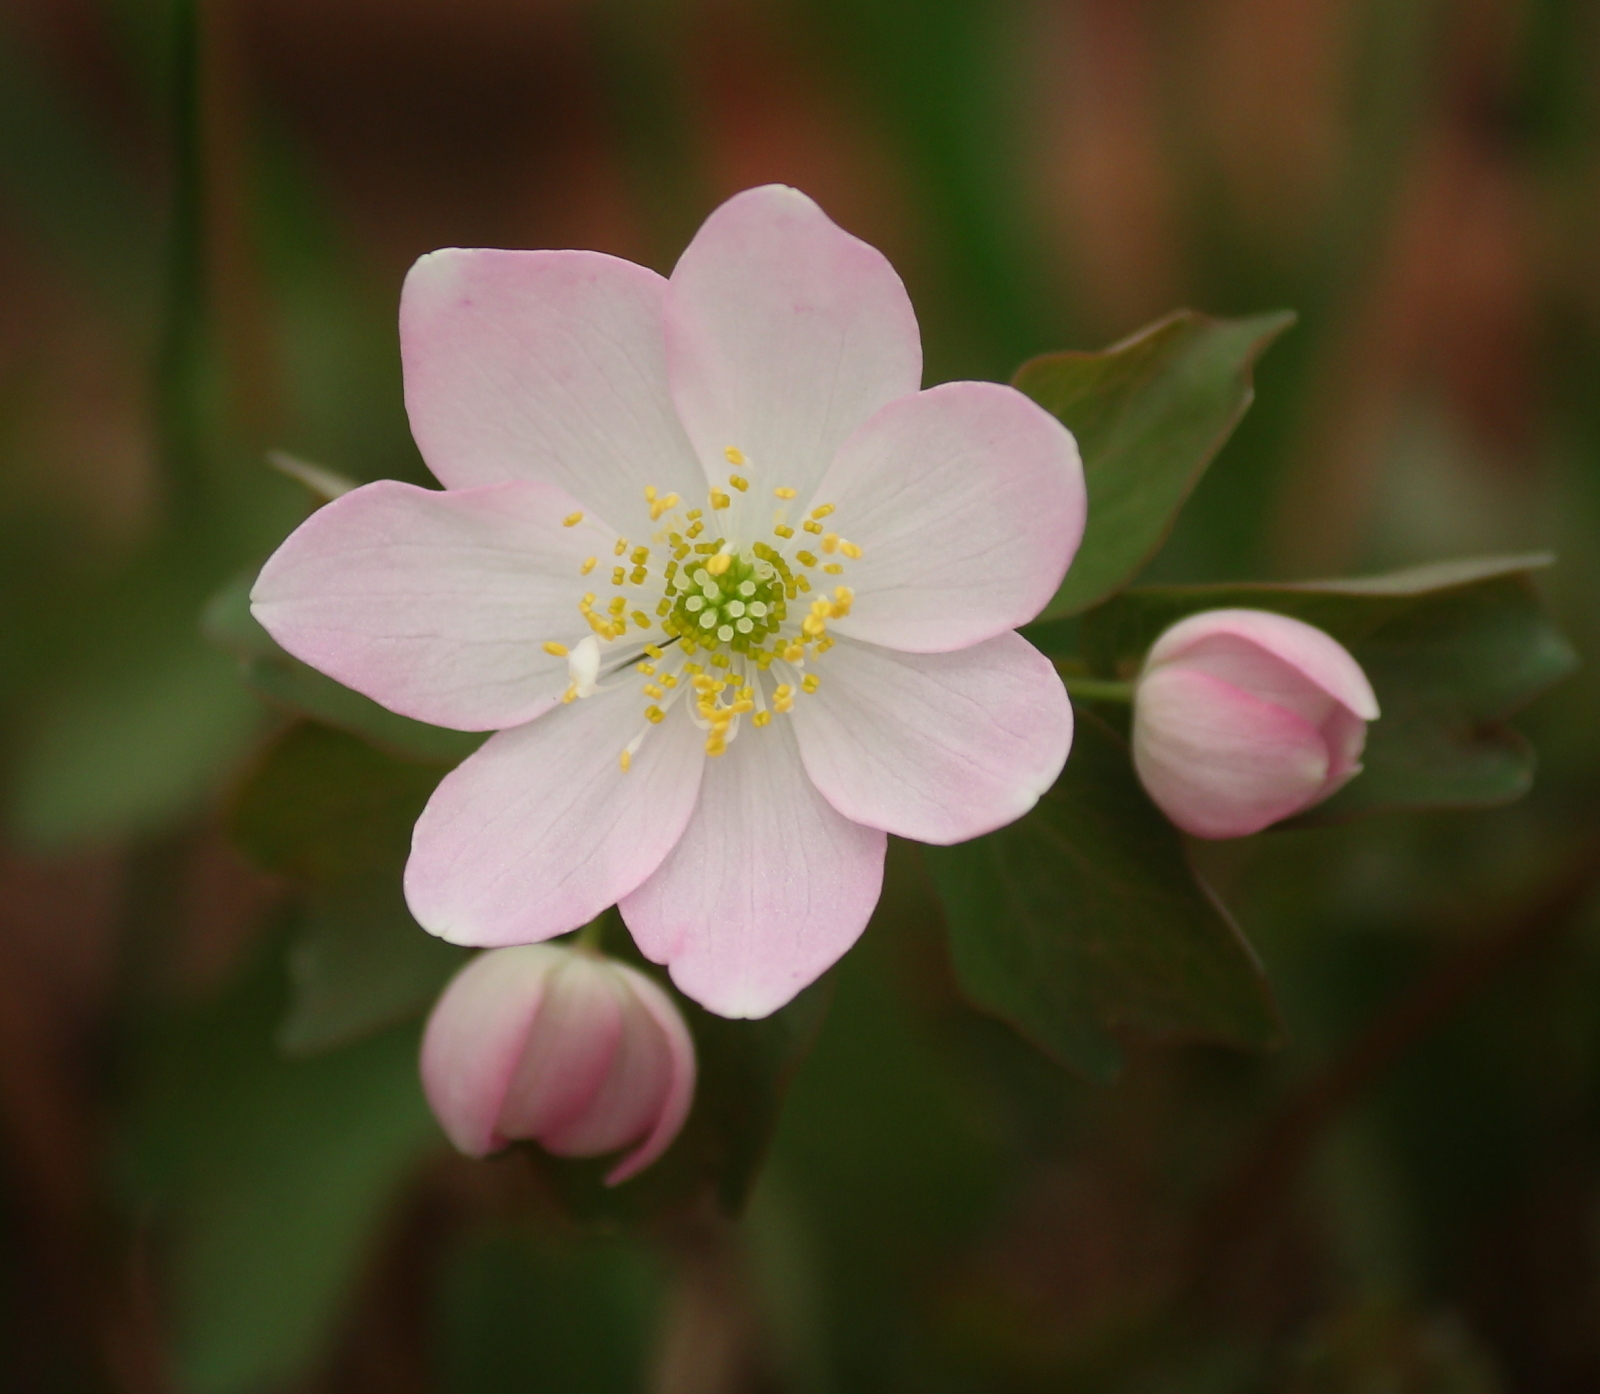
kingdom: Plantae
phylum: Tracheophyta
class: Magnoliopsida
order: Ranunculales
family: Ranunculaceae
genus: Thalictrum
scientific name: Thalictrum thalictroides
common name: Rue-anemone
